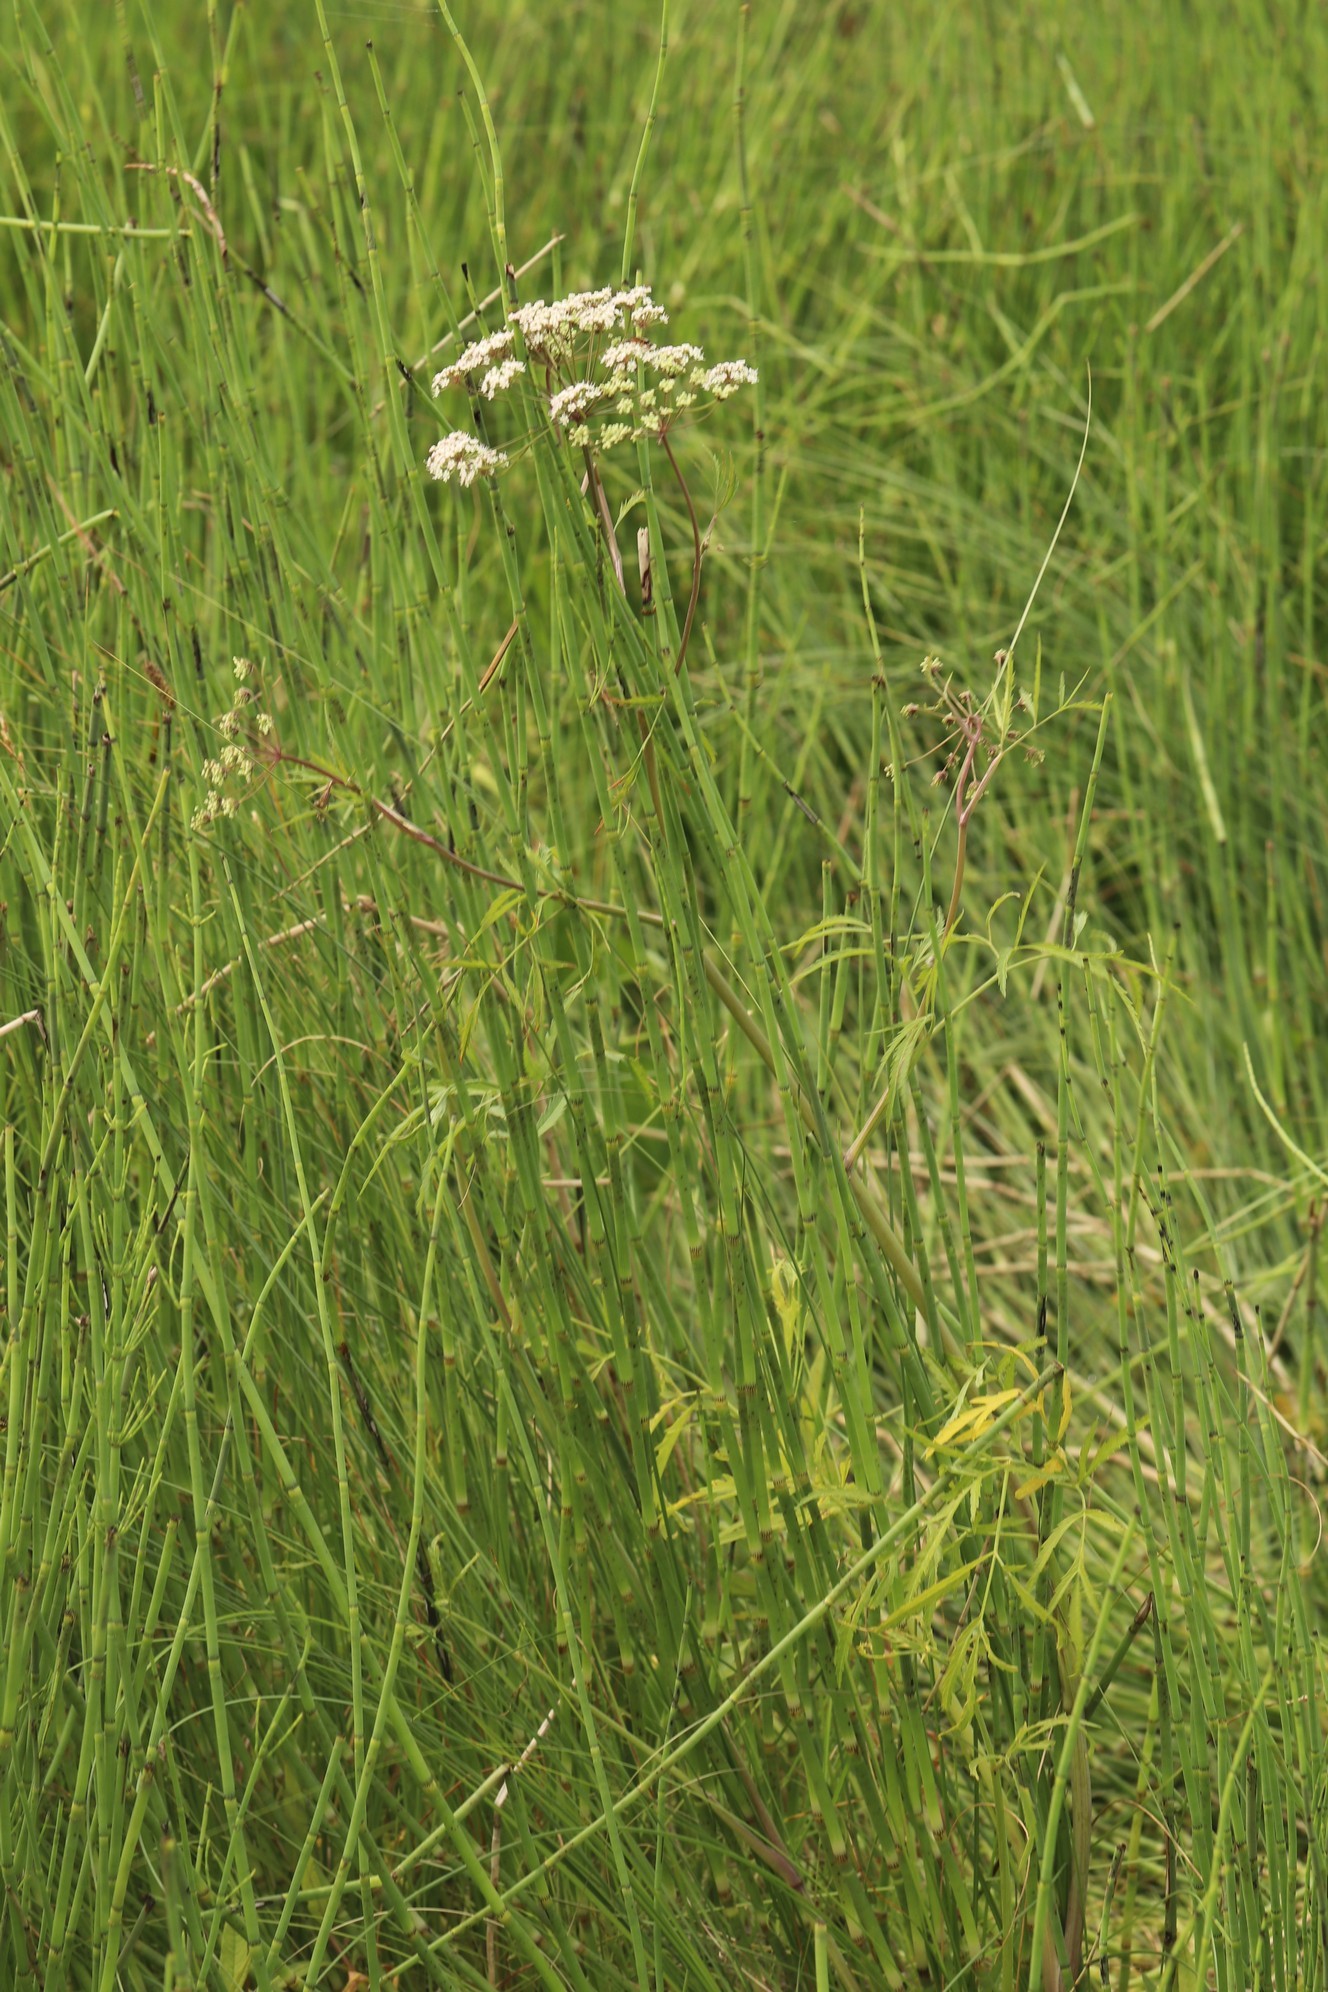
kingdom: Plantae
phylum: Tracheophyta
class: Magnoliopsida
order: Apiales
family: Apiaceae
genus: Cicuta
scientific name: Cicuta virosa
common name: Cowbane
